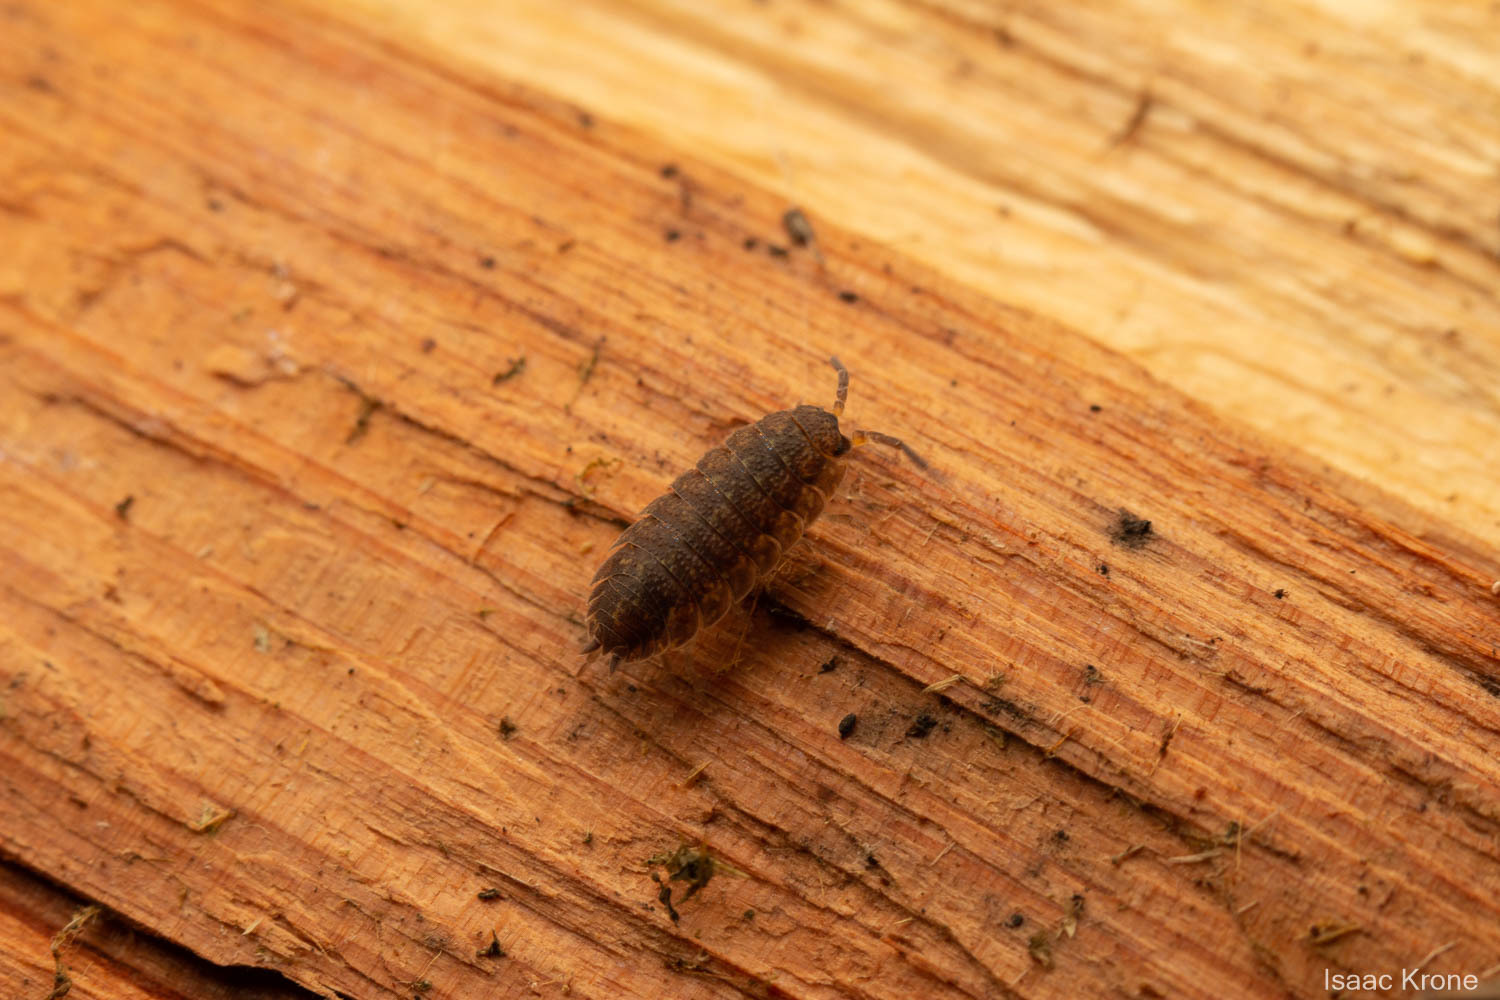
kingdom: Animalia
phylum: Arthropoda
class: Malacostraca
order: Isopoda
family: Porcellionidae
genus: Porcellio
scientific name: Porcellio scaber
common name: Common rough woodlouse
